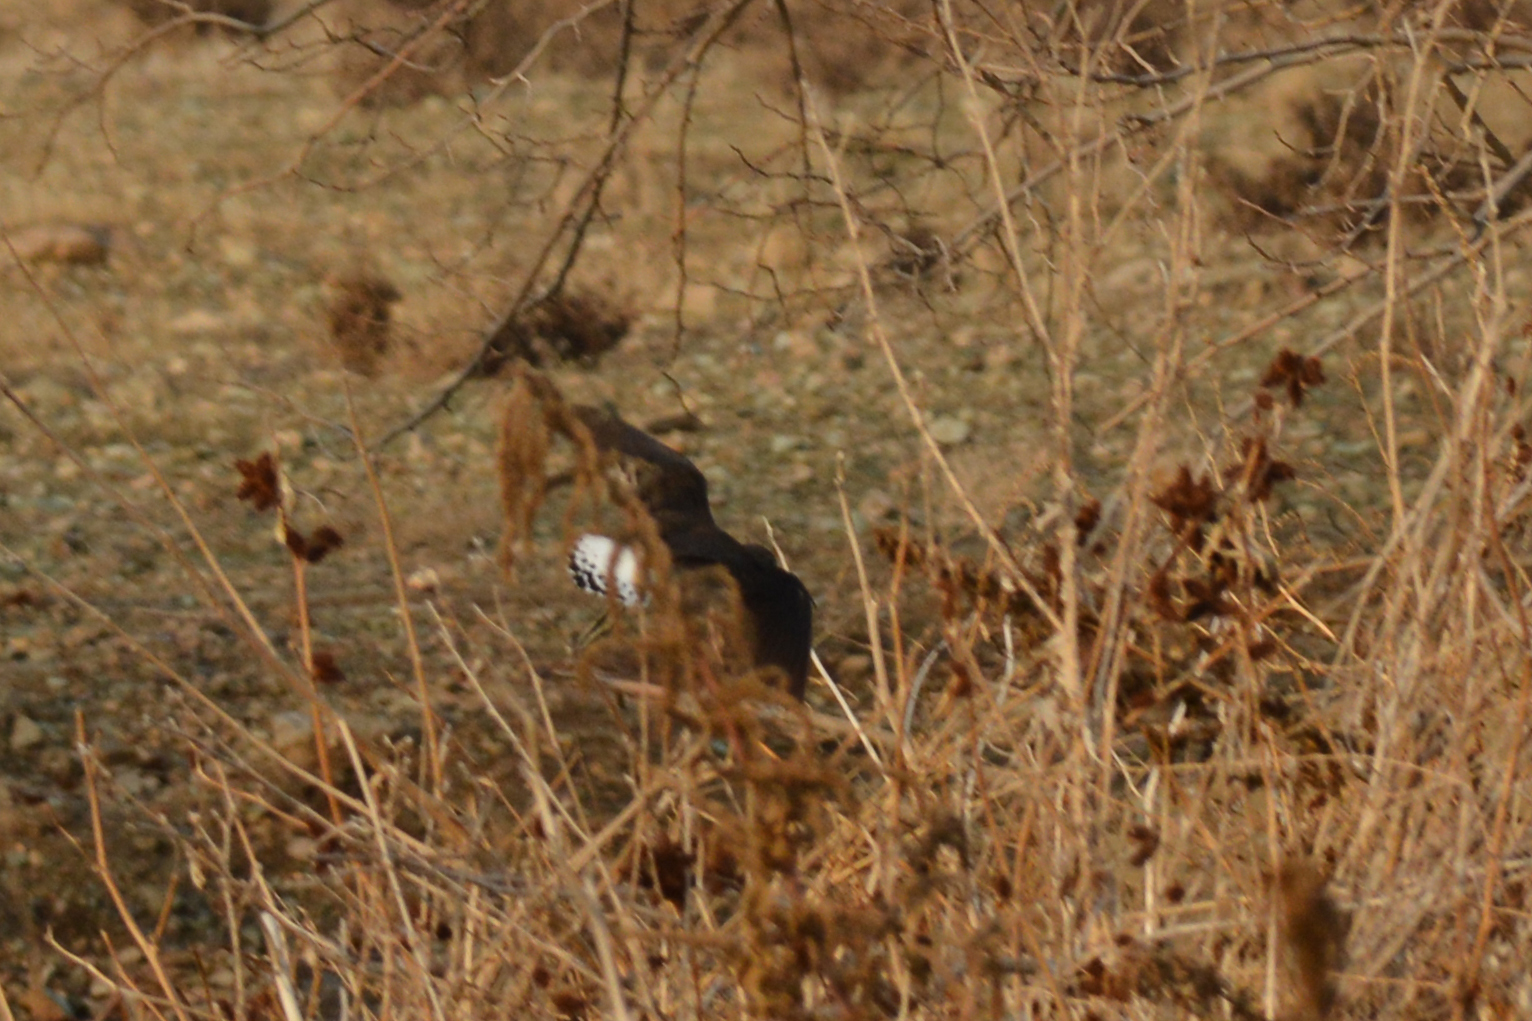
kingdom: Animalia
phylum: Chordata
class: Aves
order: Charadriiformes
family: Scolopacidae
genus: Tringa
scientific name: Tringa ochropus
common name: Green sandpiper
